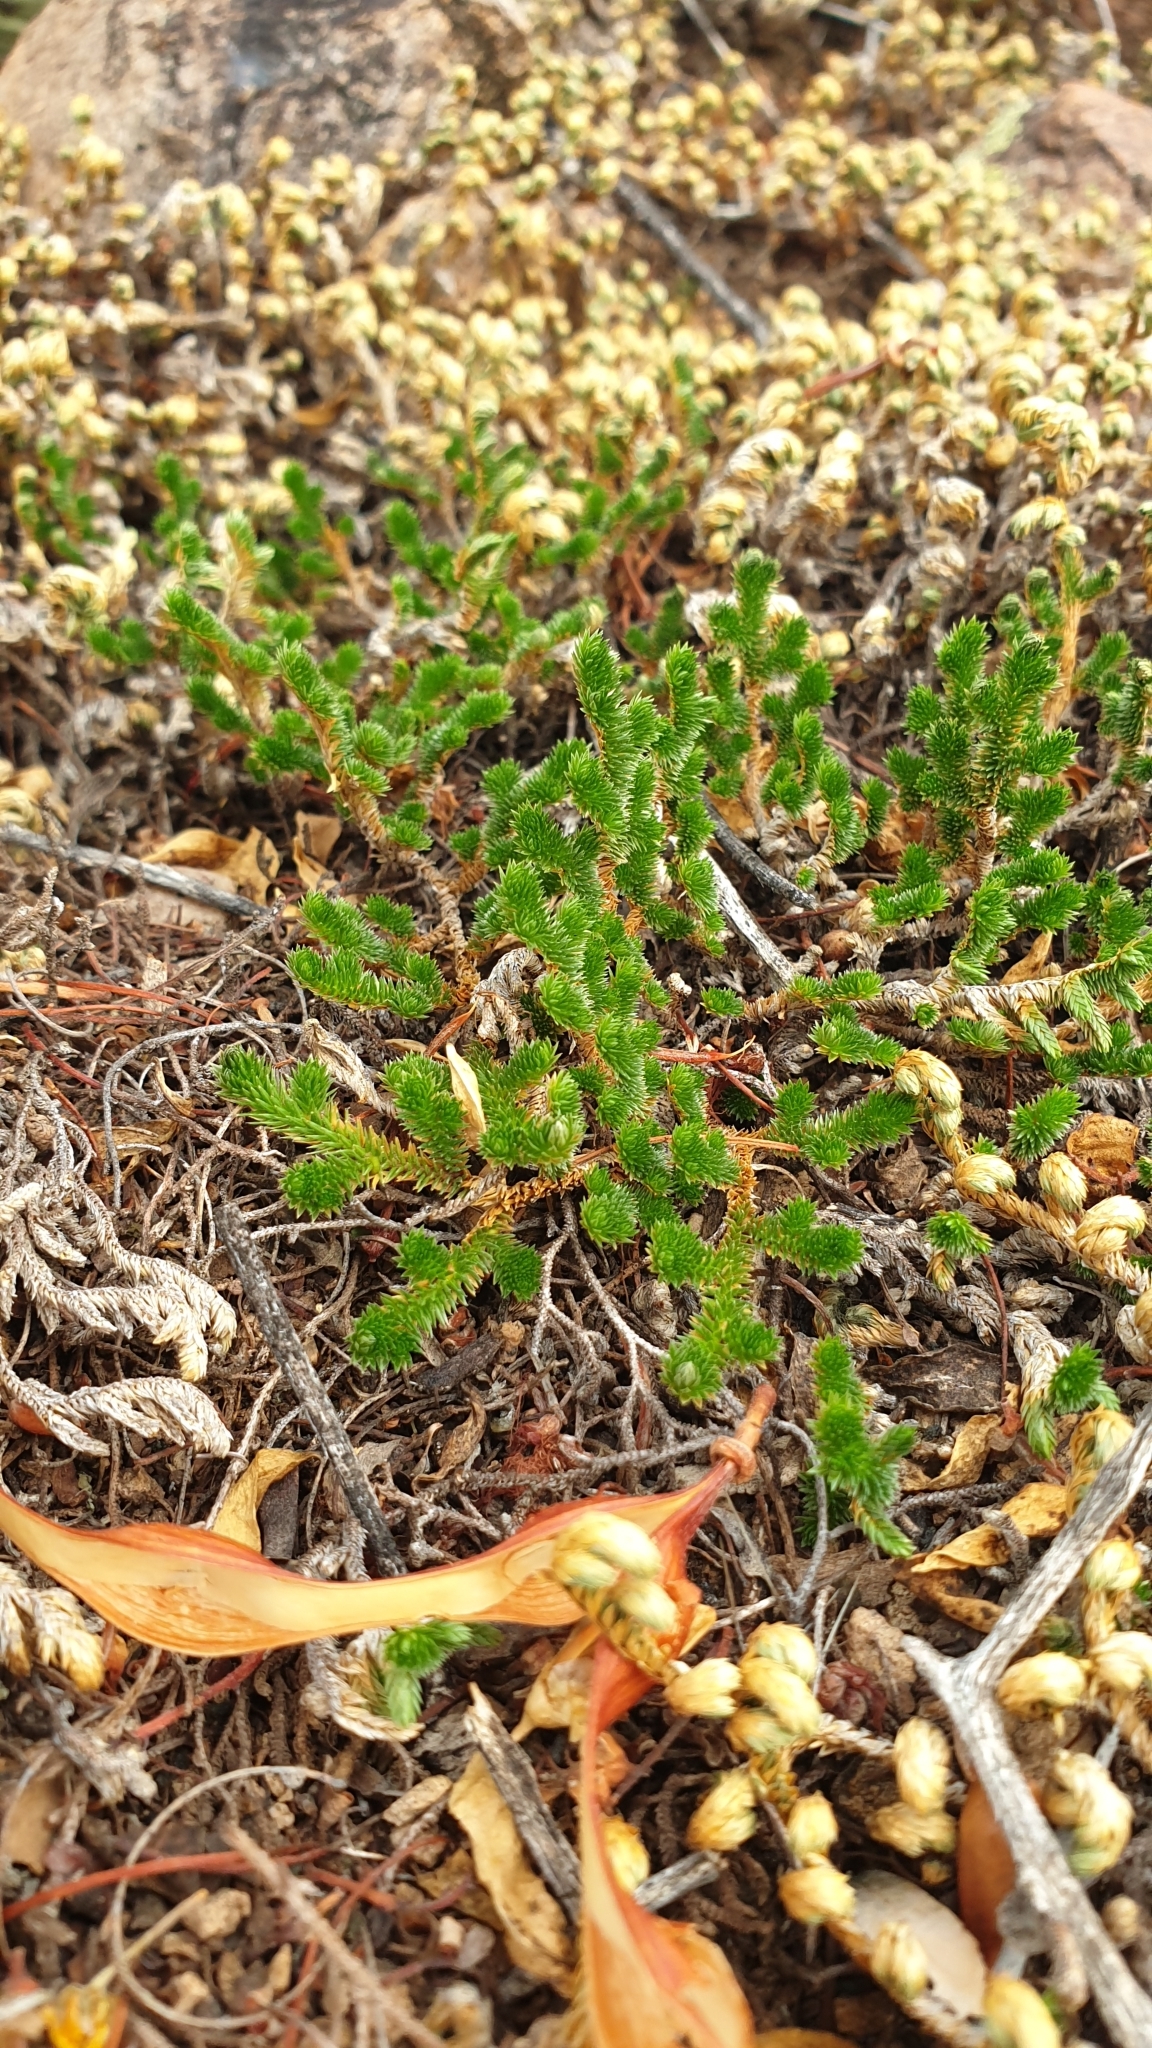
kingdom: Plantae
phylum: Tracheophyta
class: Lycopodiopsida
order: Selaginellales
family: Selaginellaceae
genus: Selaginella
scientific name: Selaginella arizonica
